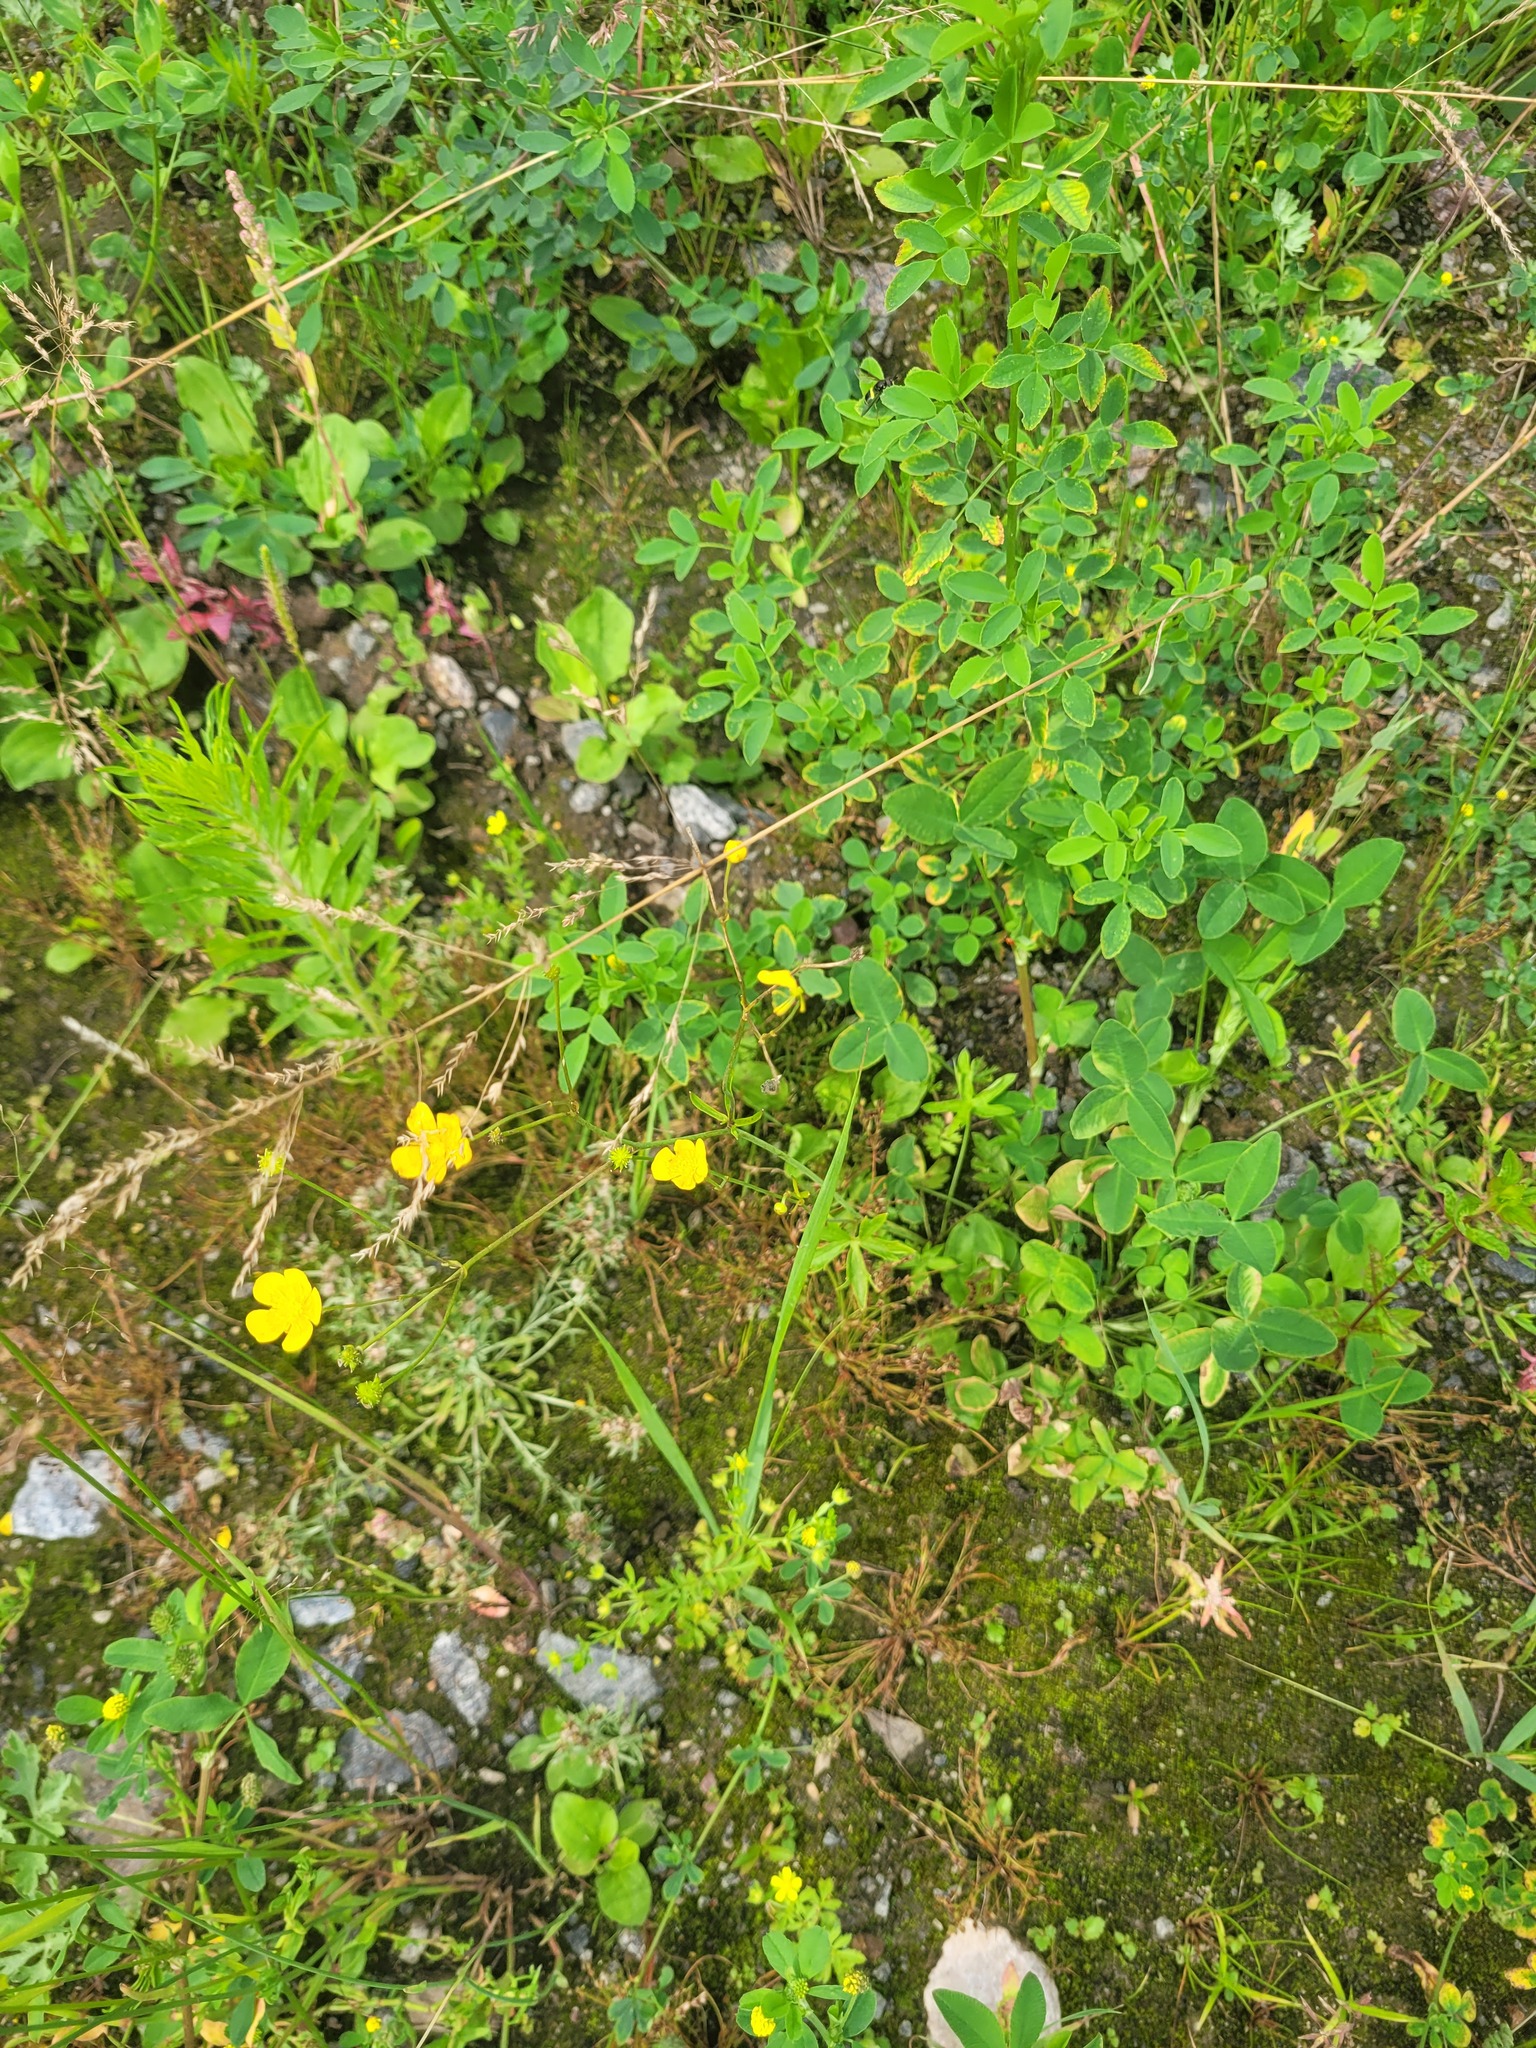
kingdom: Plantae
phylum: Tracheophyta
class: Magnoliopsida
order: Ranunculales
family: Ranunculaceae
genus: Ranunculus
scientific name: Ranunculus acris
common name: Meadow buttercup
